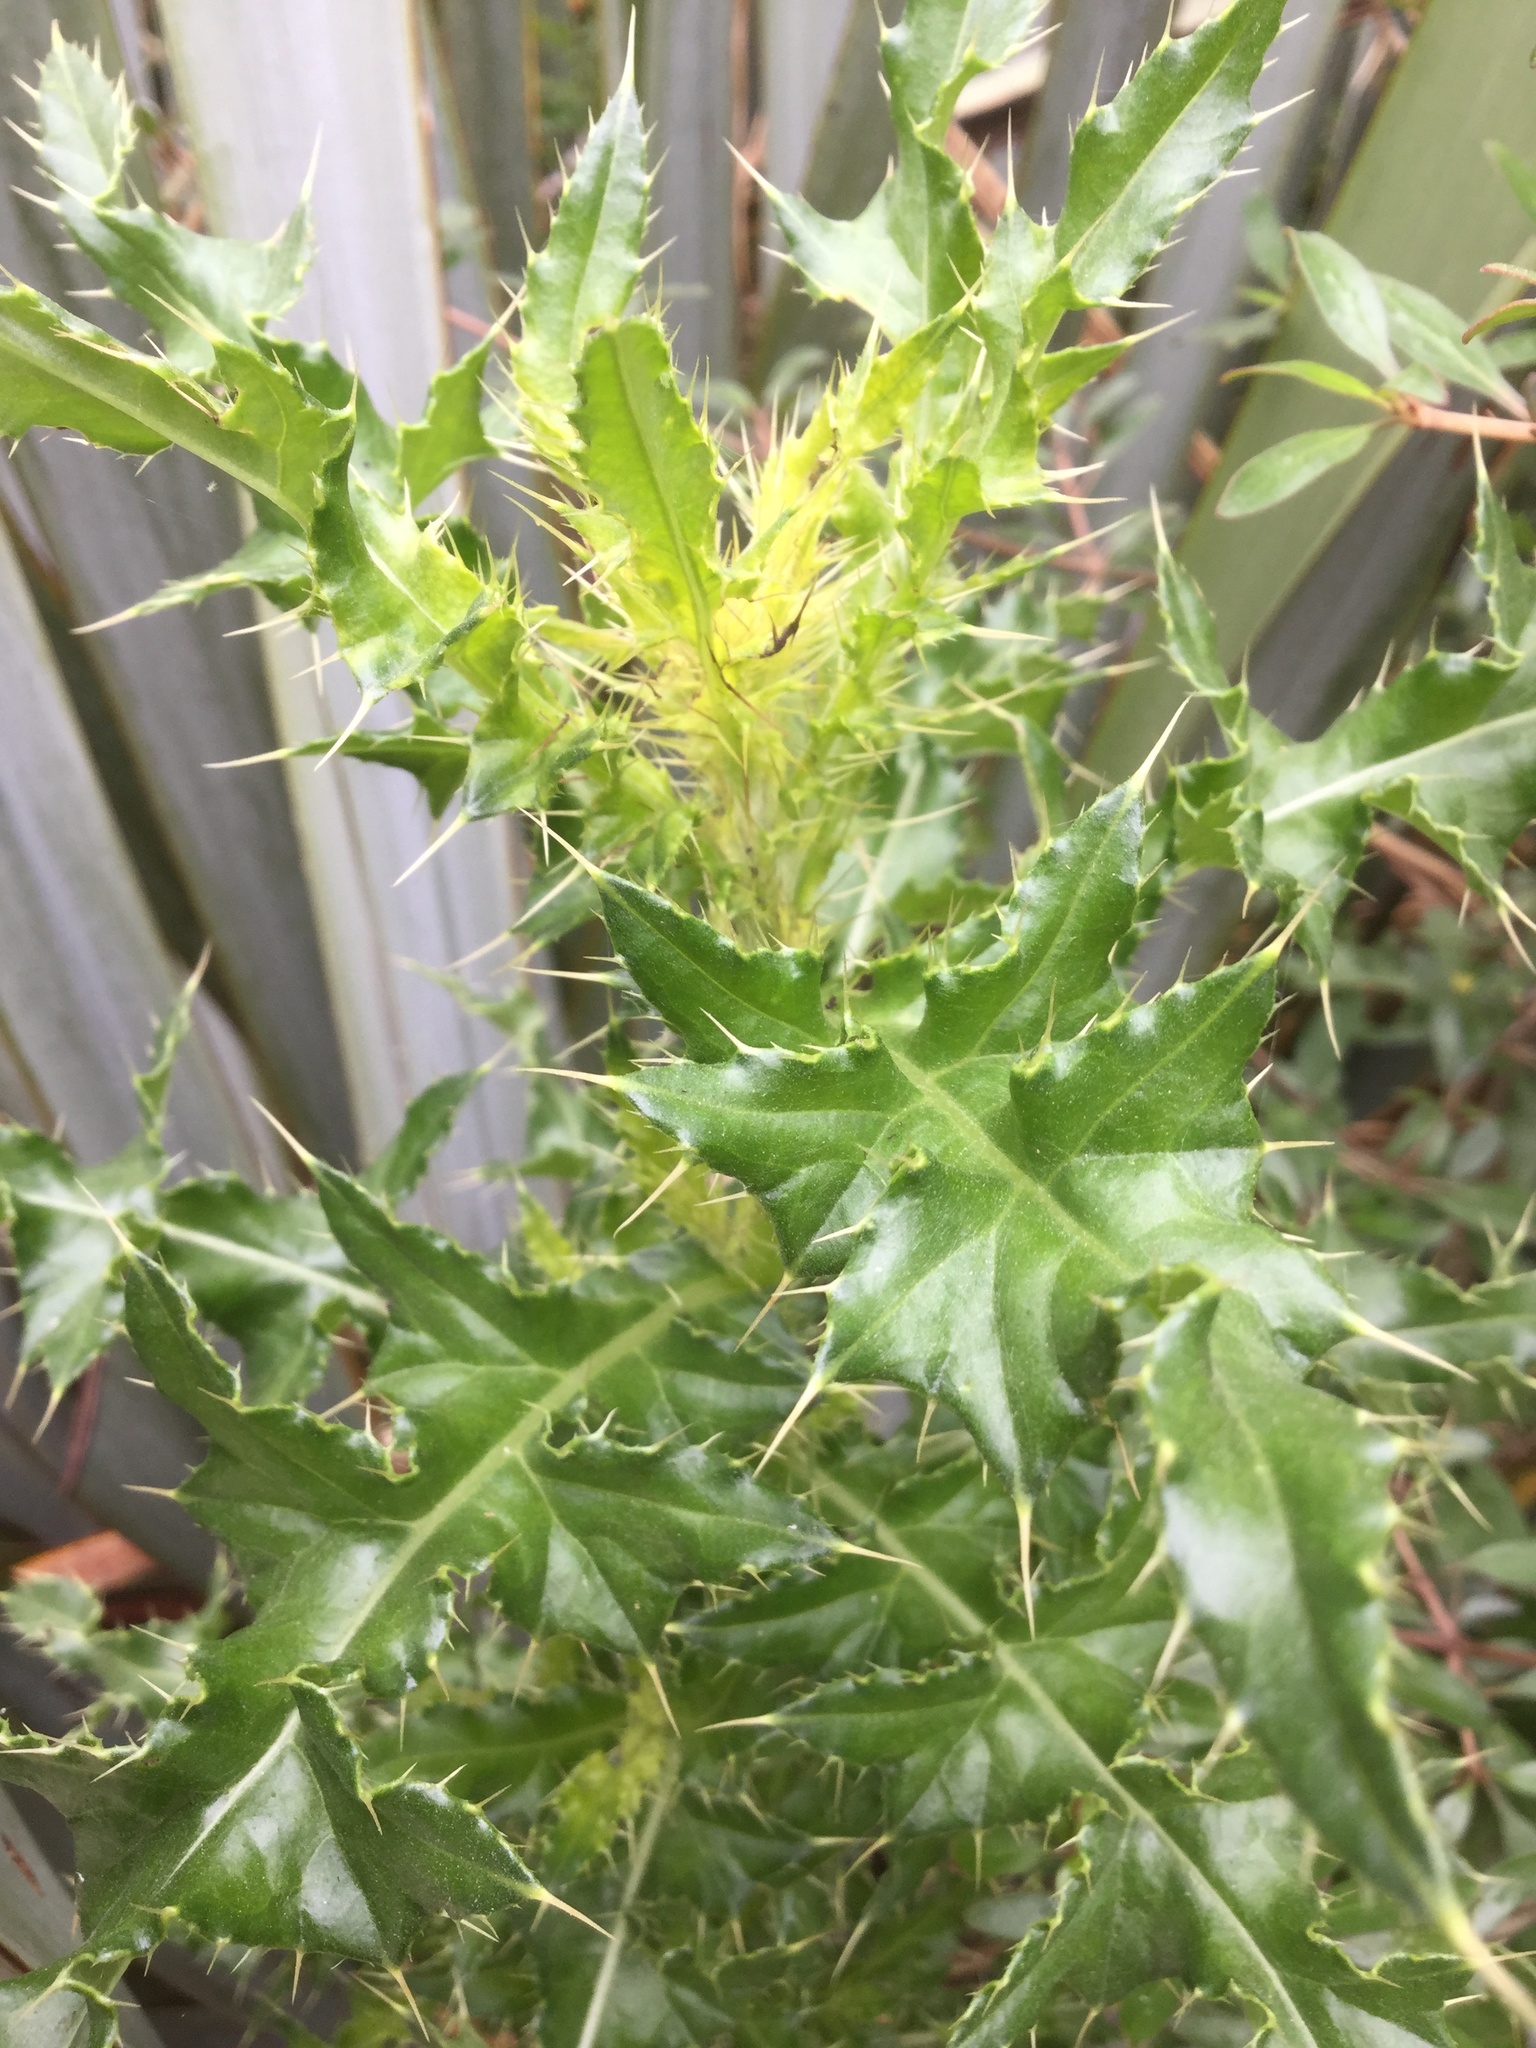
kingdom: Plantae
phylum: Tracheophyta
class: Magnoliopsida
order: Asterales
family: Asteraceae
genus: Cirsium
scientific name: Cirsium arvense
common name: Creeping thistle
